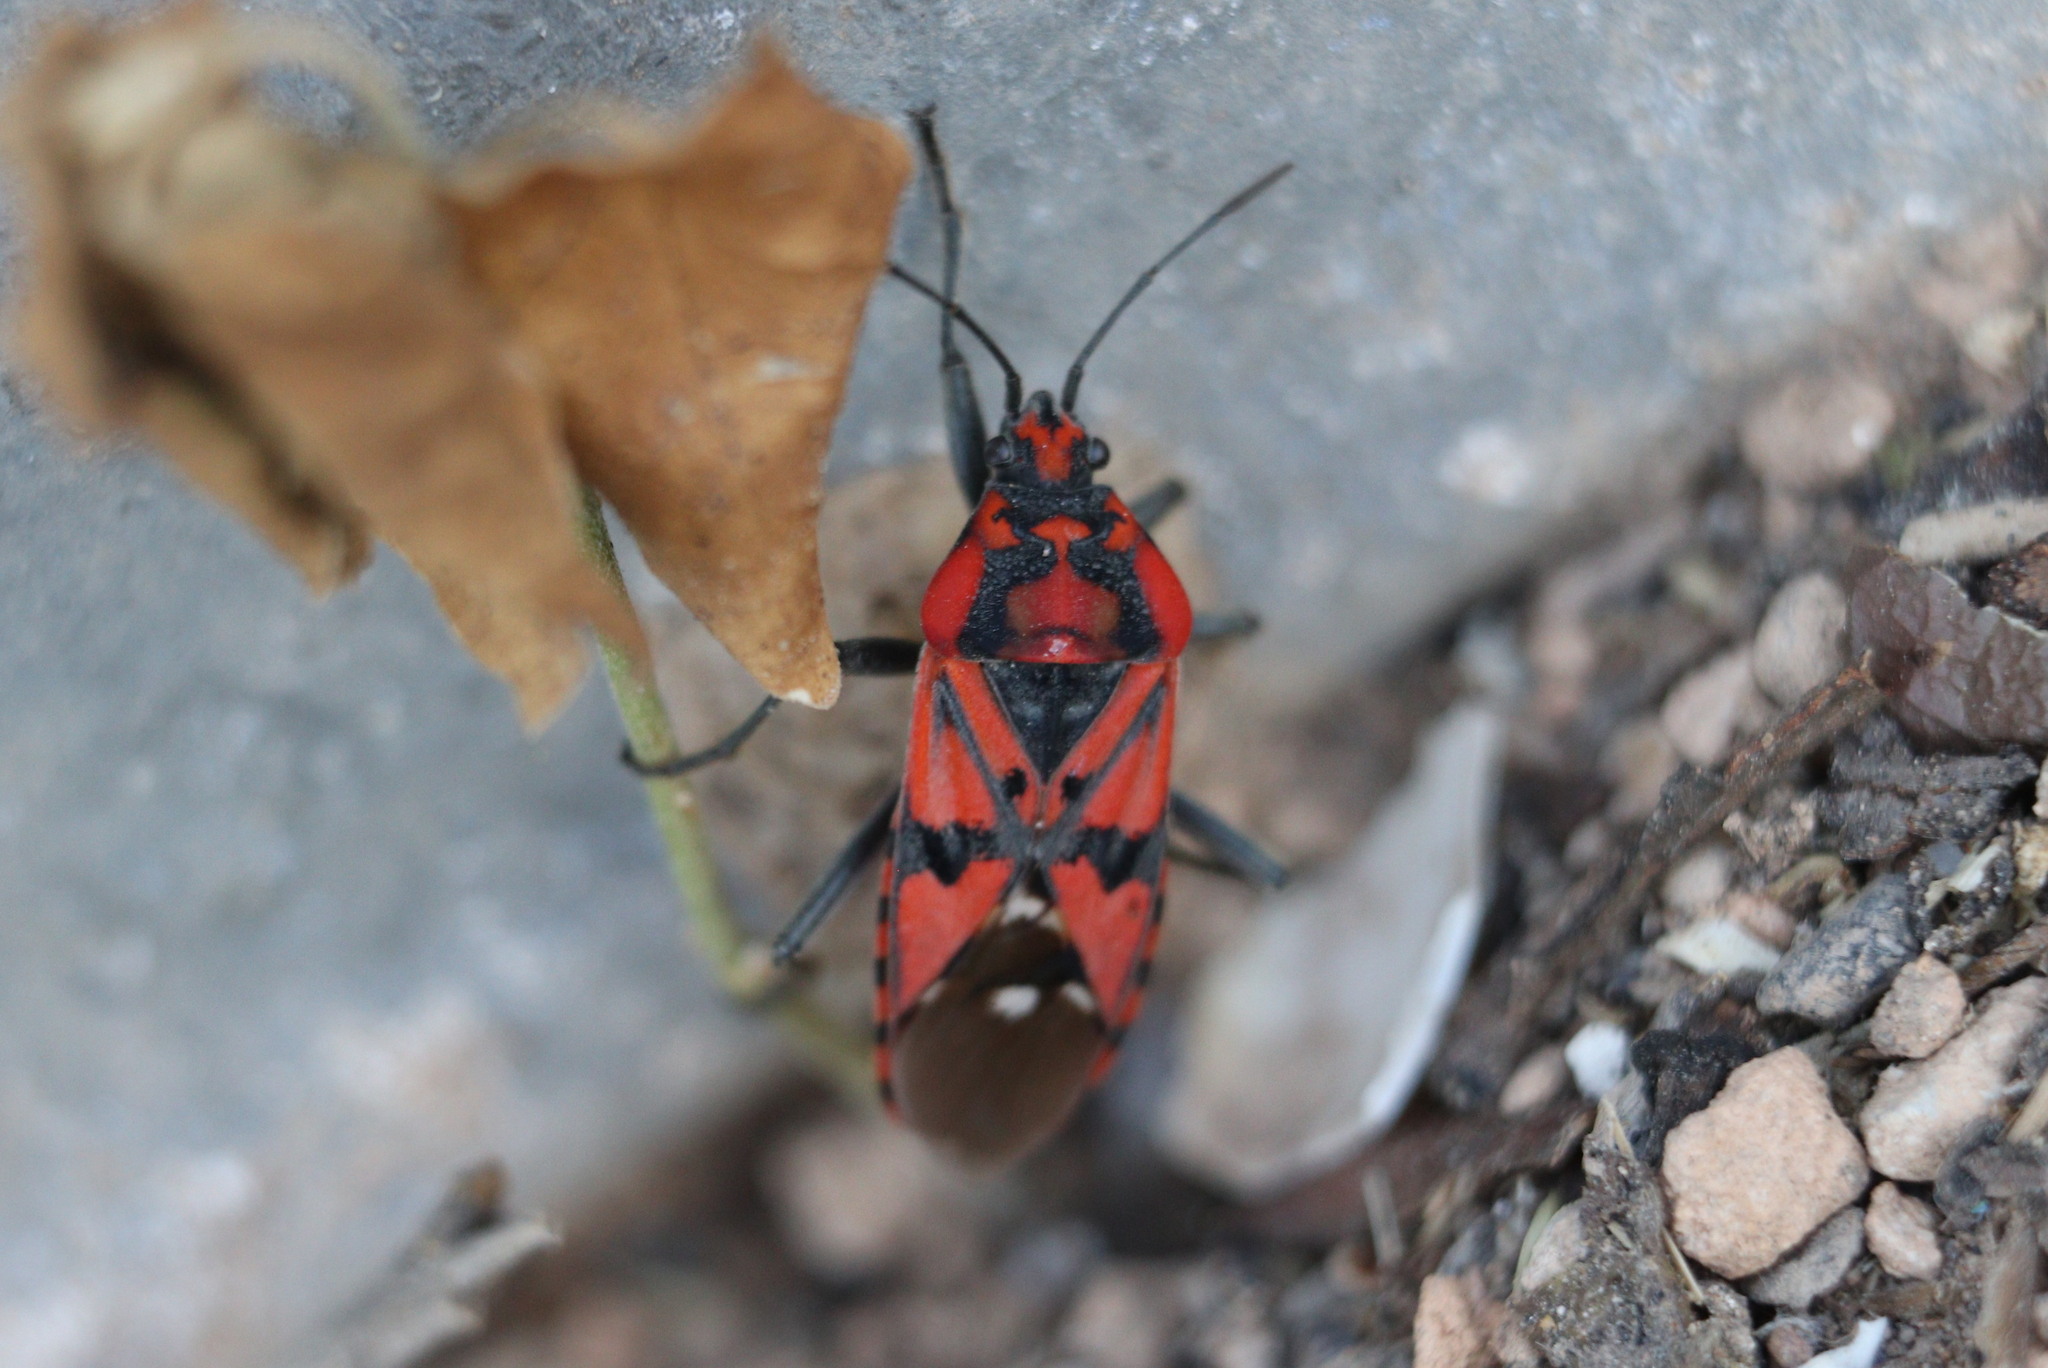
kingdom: Animalia
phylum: Arthropoda
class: Insecta
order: Hemiptera
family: Lygaeidae
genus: Spilostethus
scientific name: Spilostethus pandurus
